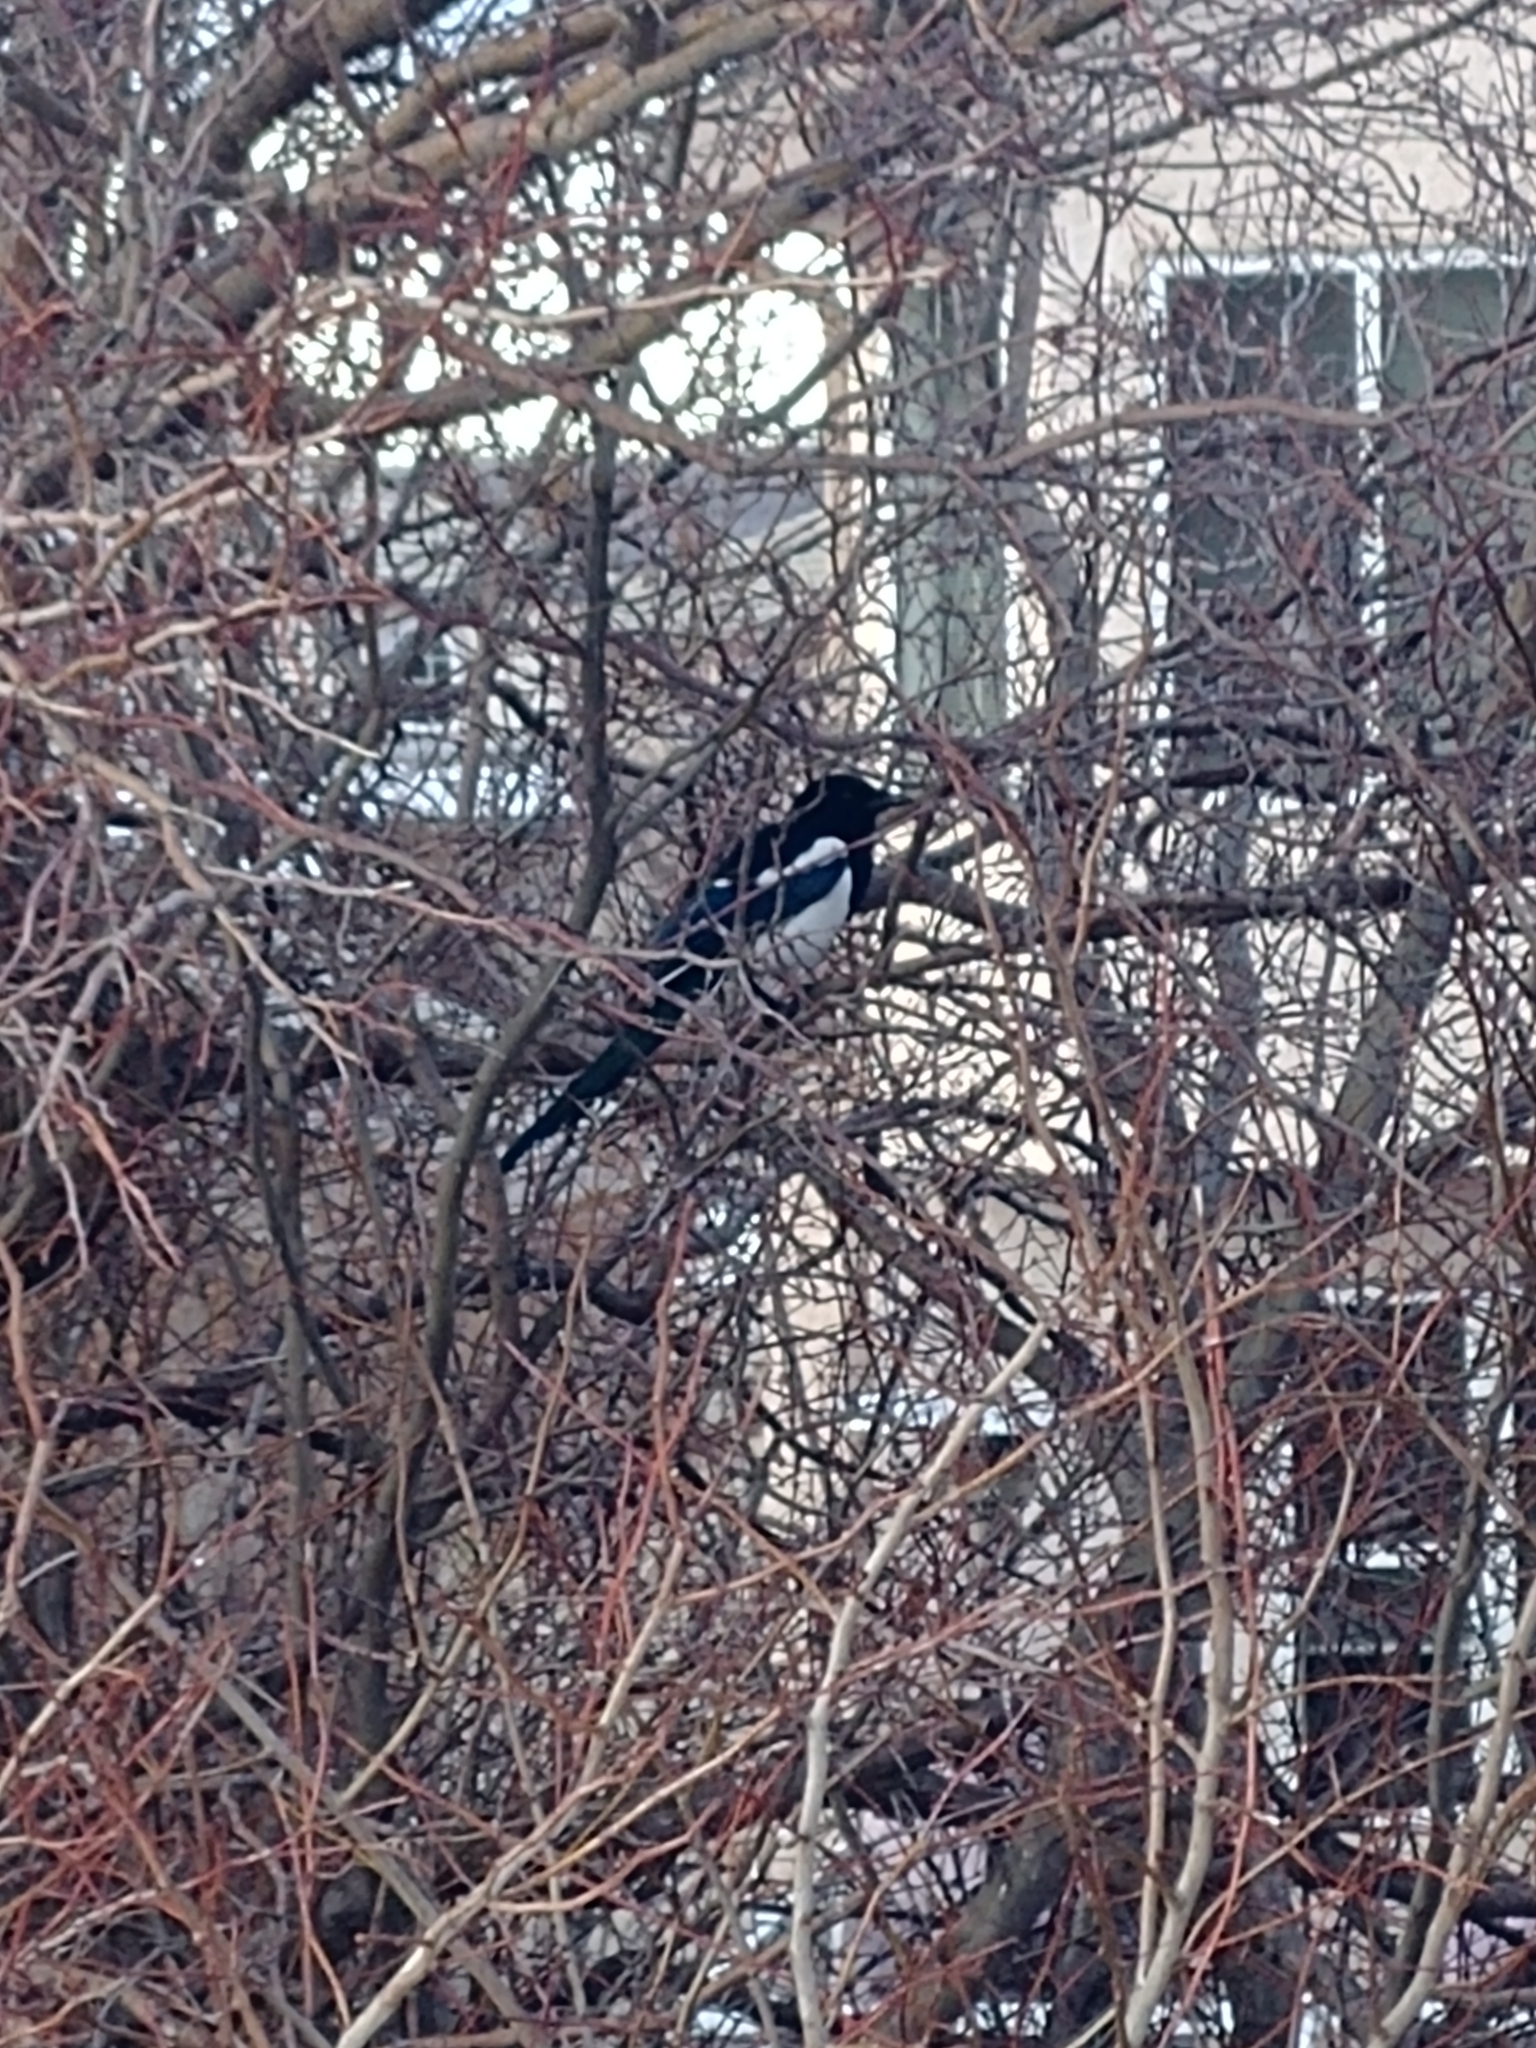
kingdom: Animalia
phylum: Chordata
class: Aves
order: Passeriformes
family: Corvidae
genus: Pica
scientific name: Pica hudsonia
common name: Black-billed magpie
